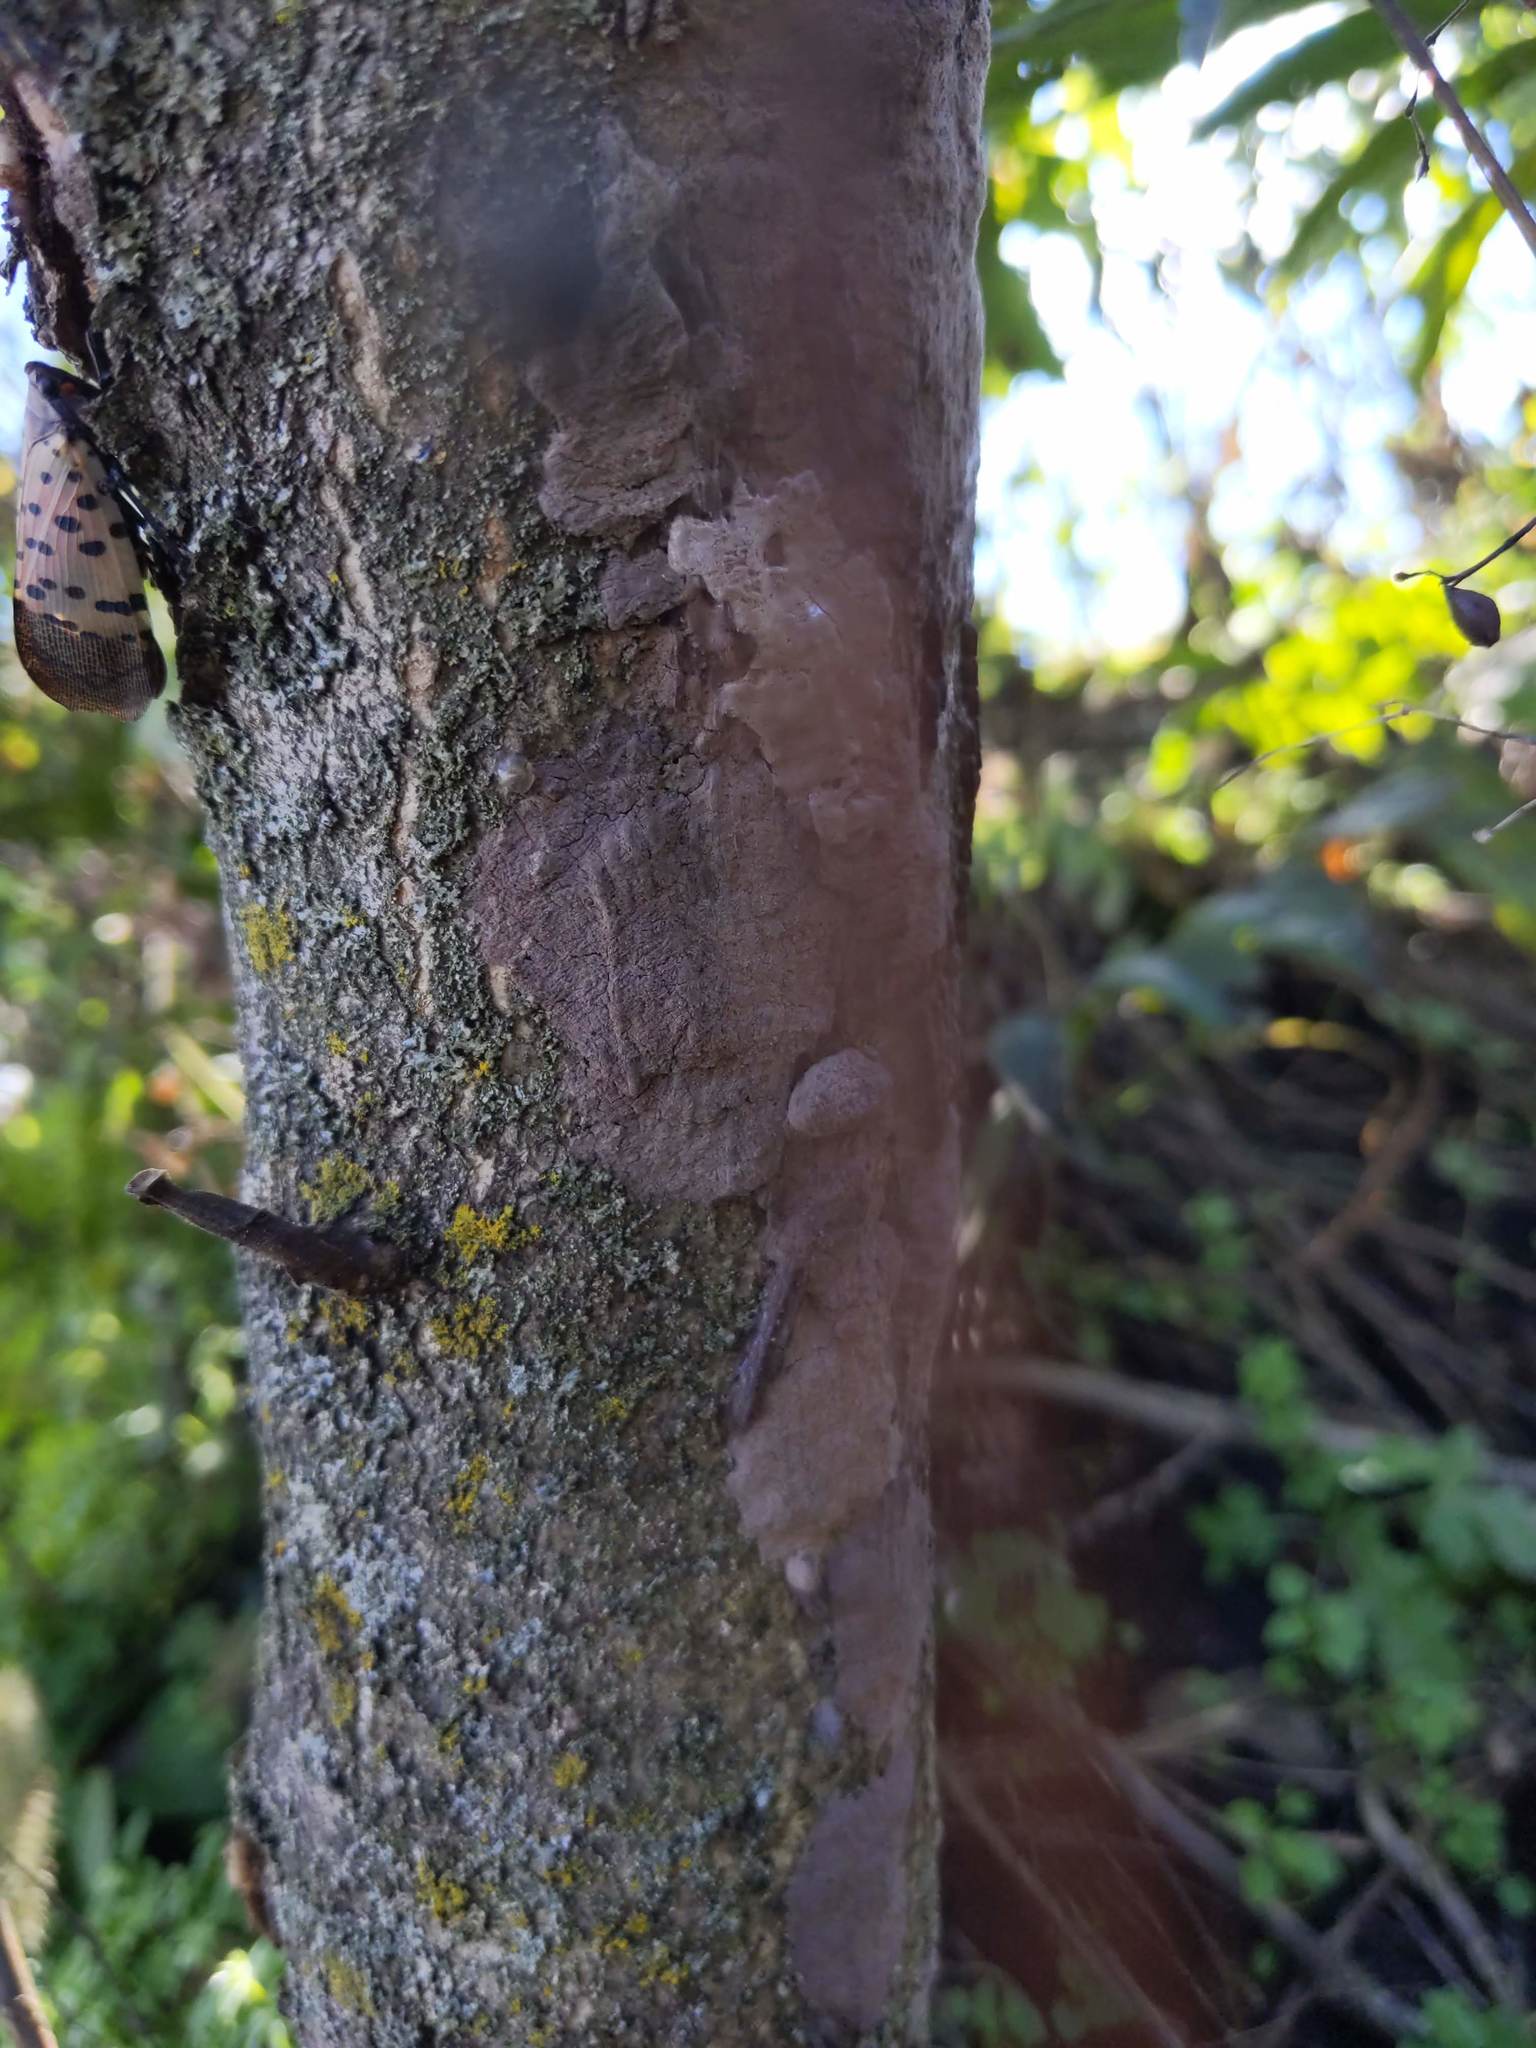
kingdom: Animalia
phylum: Arthropoda
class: Insecta
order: Hemiptera
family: Fulgoridae
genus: Lycorma
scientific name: Lycorma delicatula
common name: Spotted lanternfly
